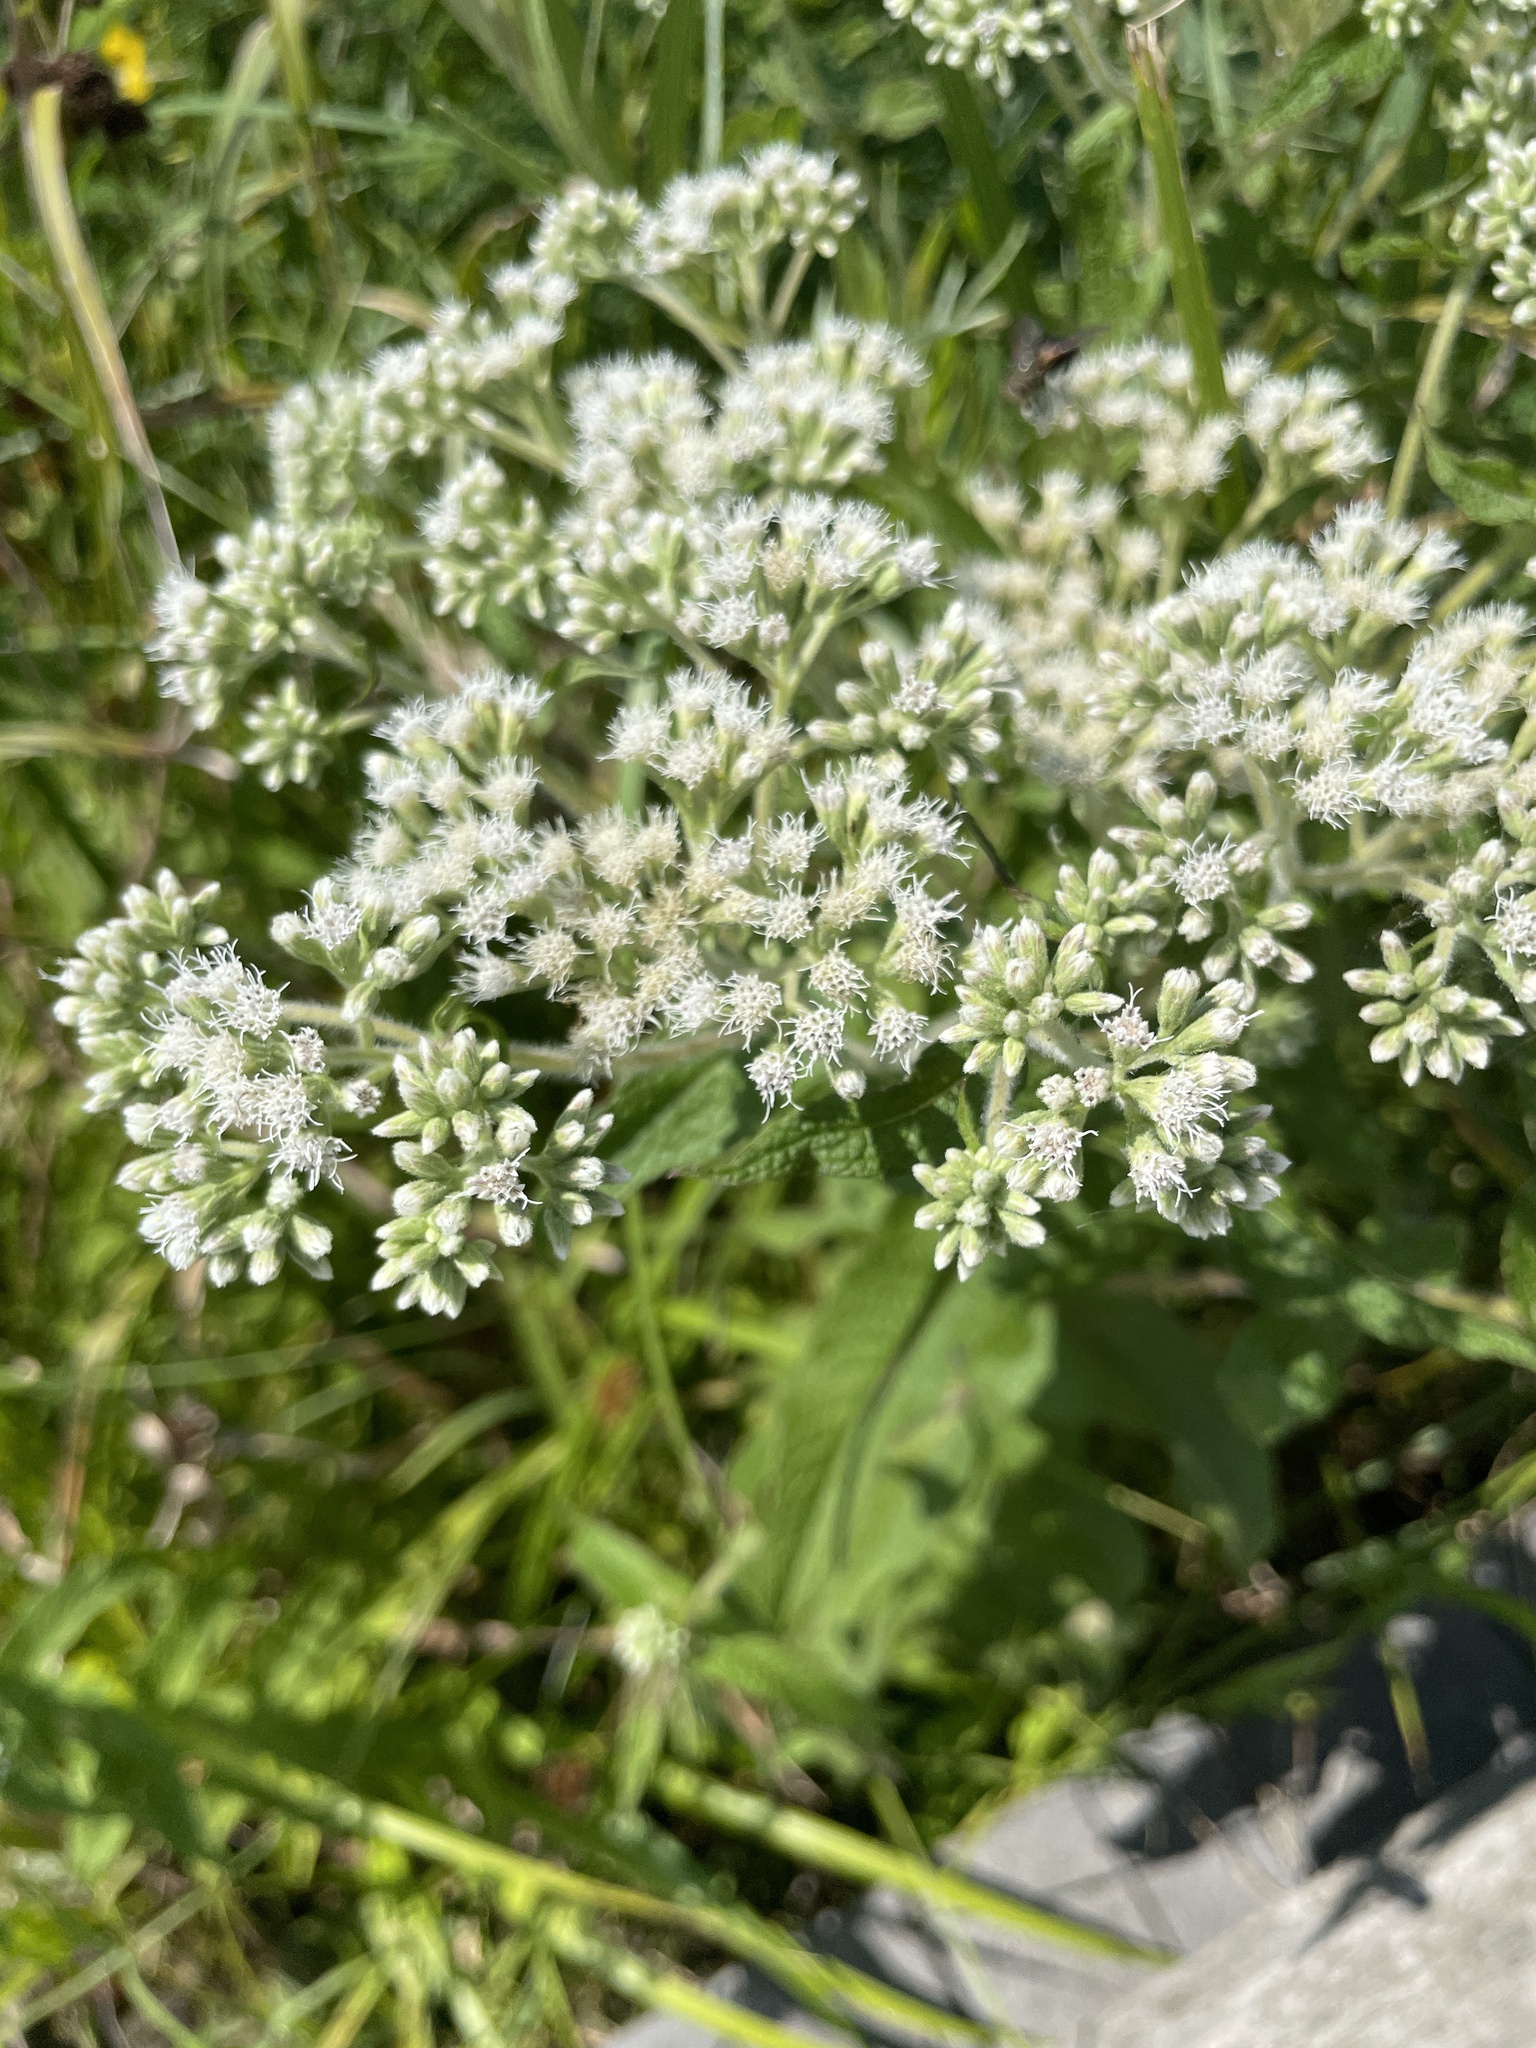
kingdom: Plantae
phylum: Tracheophyta
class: Magnoliopsida
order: Asterales
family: Asteraceae
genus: Eupatorium
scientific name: Eupatorium perfoliatum
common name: Boneset
